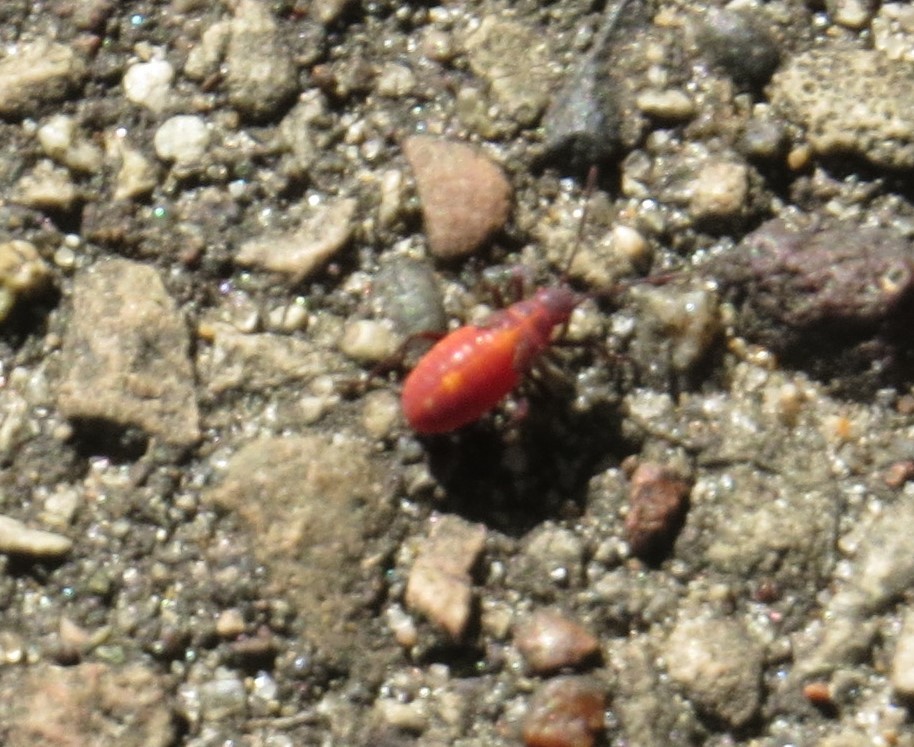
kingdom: Animalia
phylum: Arthropoda
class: Insecta
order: Hemiptera
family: Rhopalidae
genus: Boisea
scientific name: Boisea trivittata
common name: Boxelder bug
